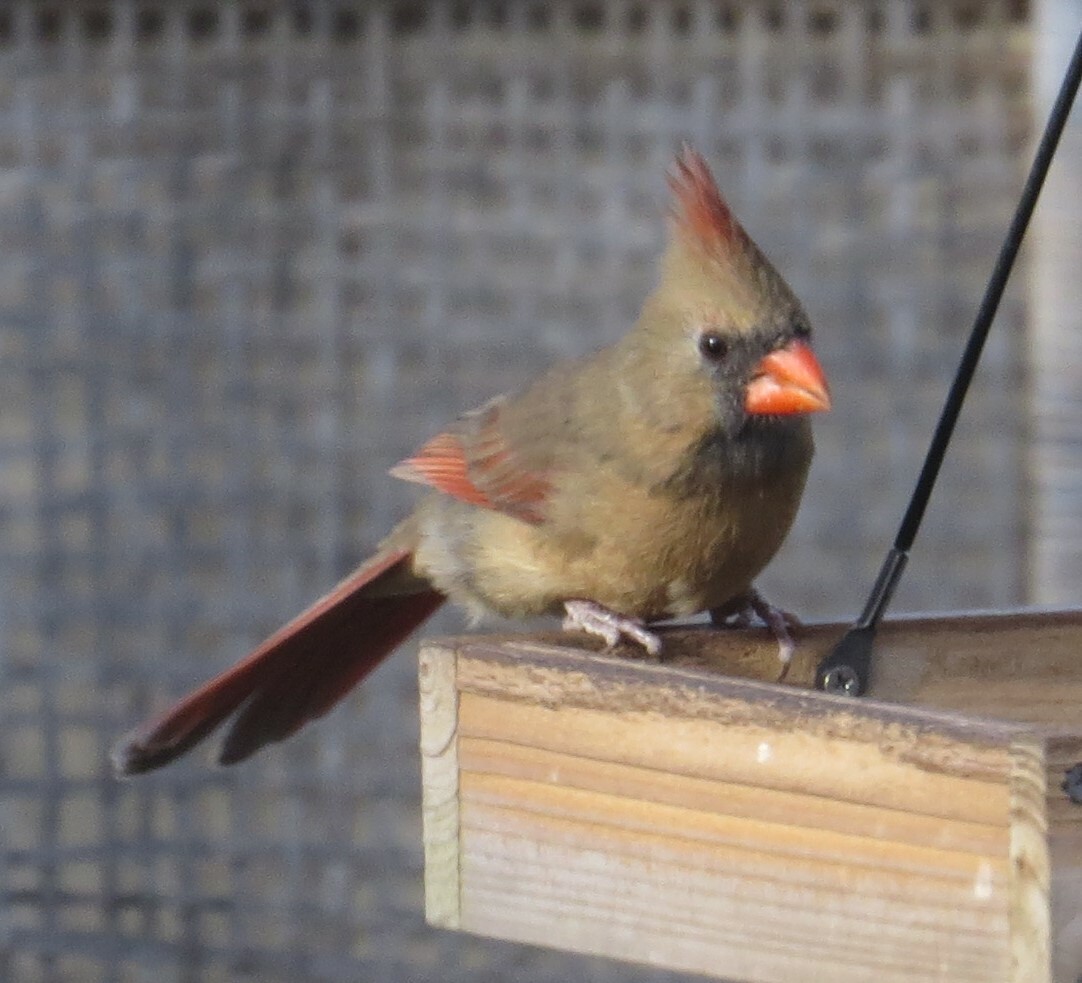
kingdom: Animalia
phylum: Chordata
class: Aves
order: Passeriformes
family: Cardinalidae
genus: Cardinalis
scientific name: Cardinalis cardinalis
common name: Northern cardinal
